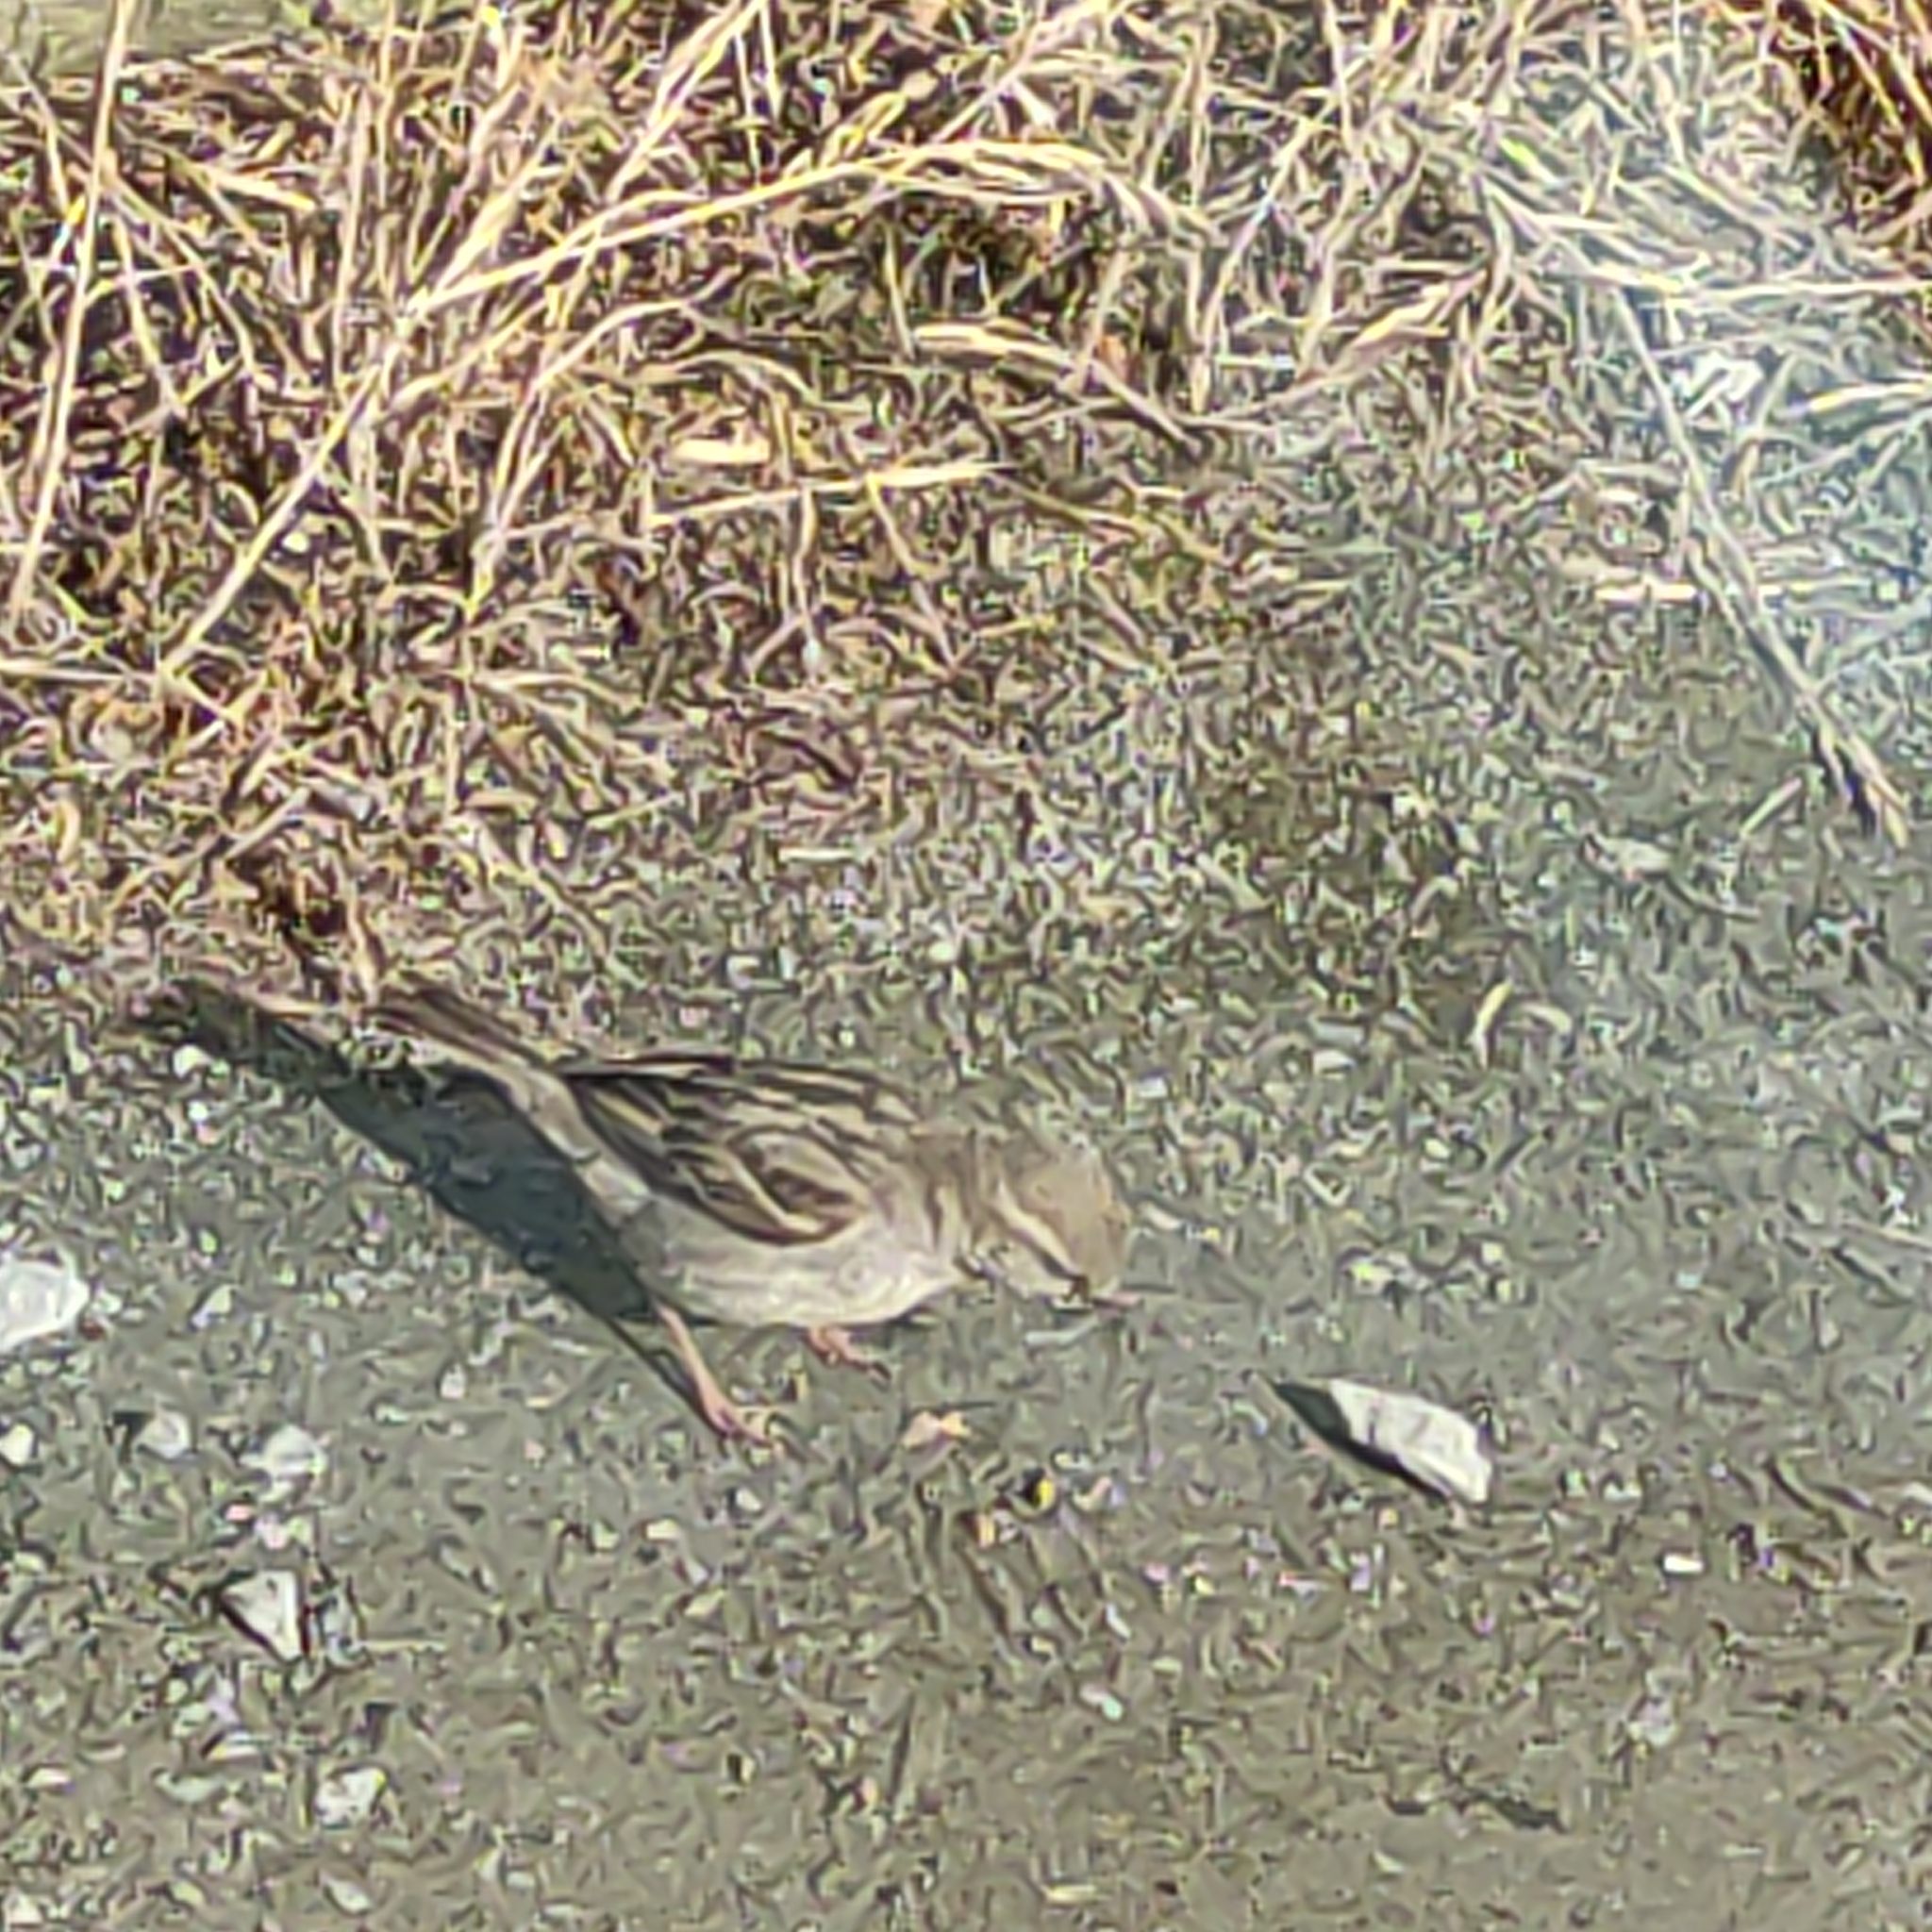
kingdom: Animalia
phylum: Chordata
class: Aves
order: Passeriformes
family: Passeridae
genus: Passer
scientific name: Passer domesticus
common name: House sparrow
